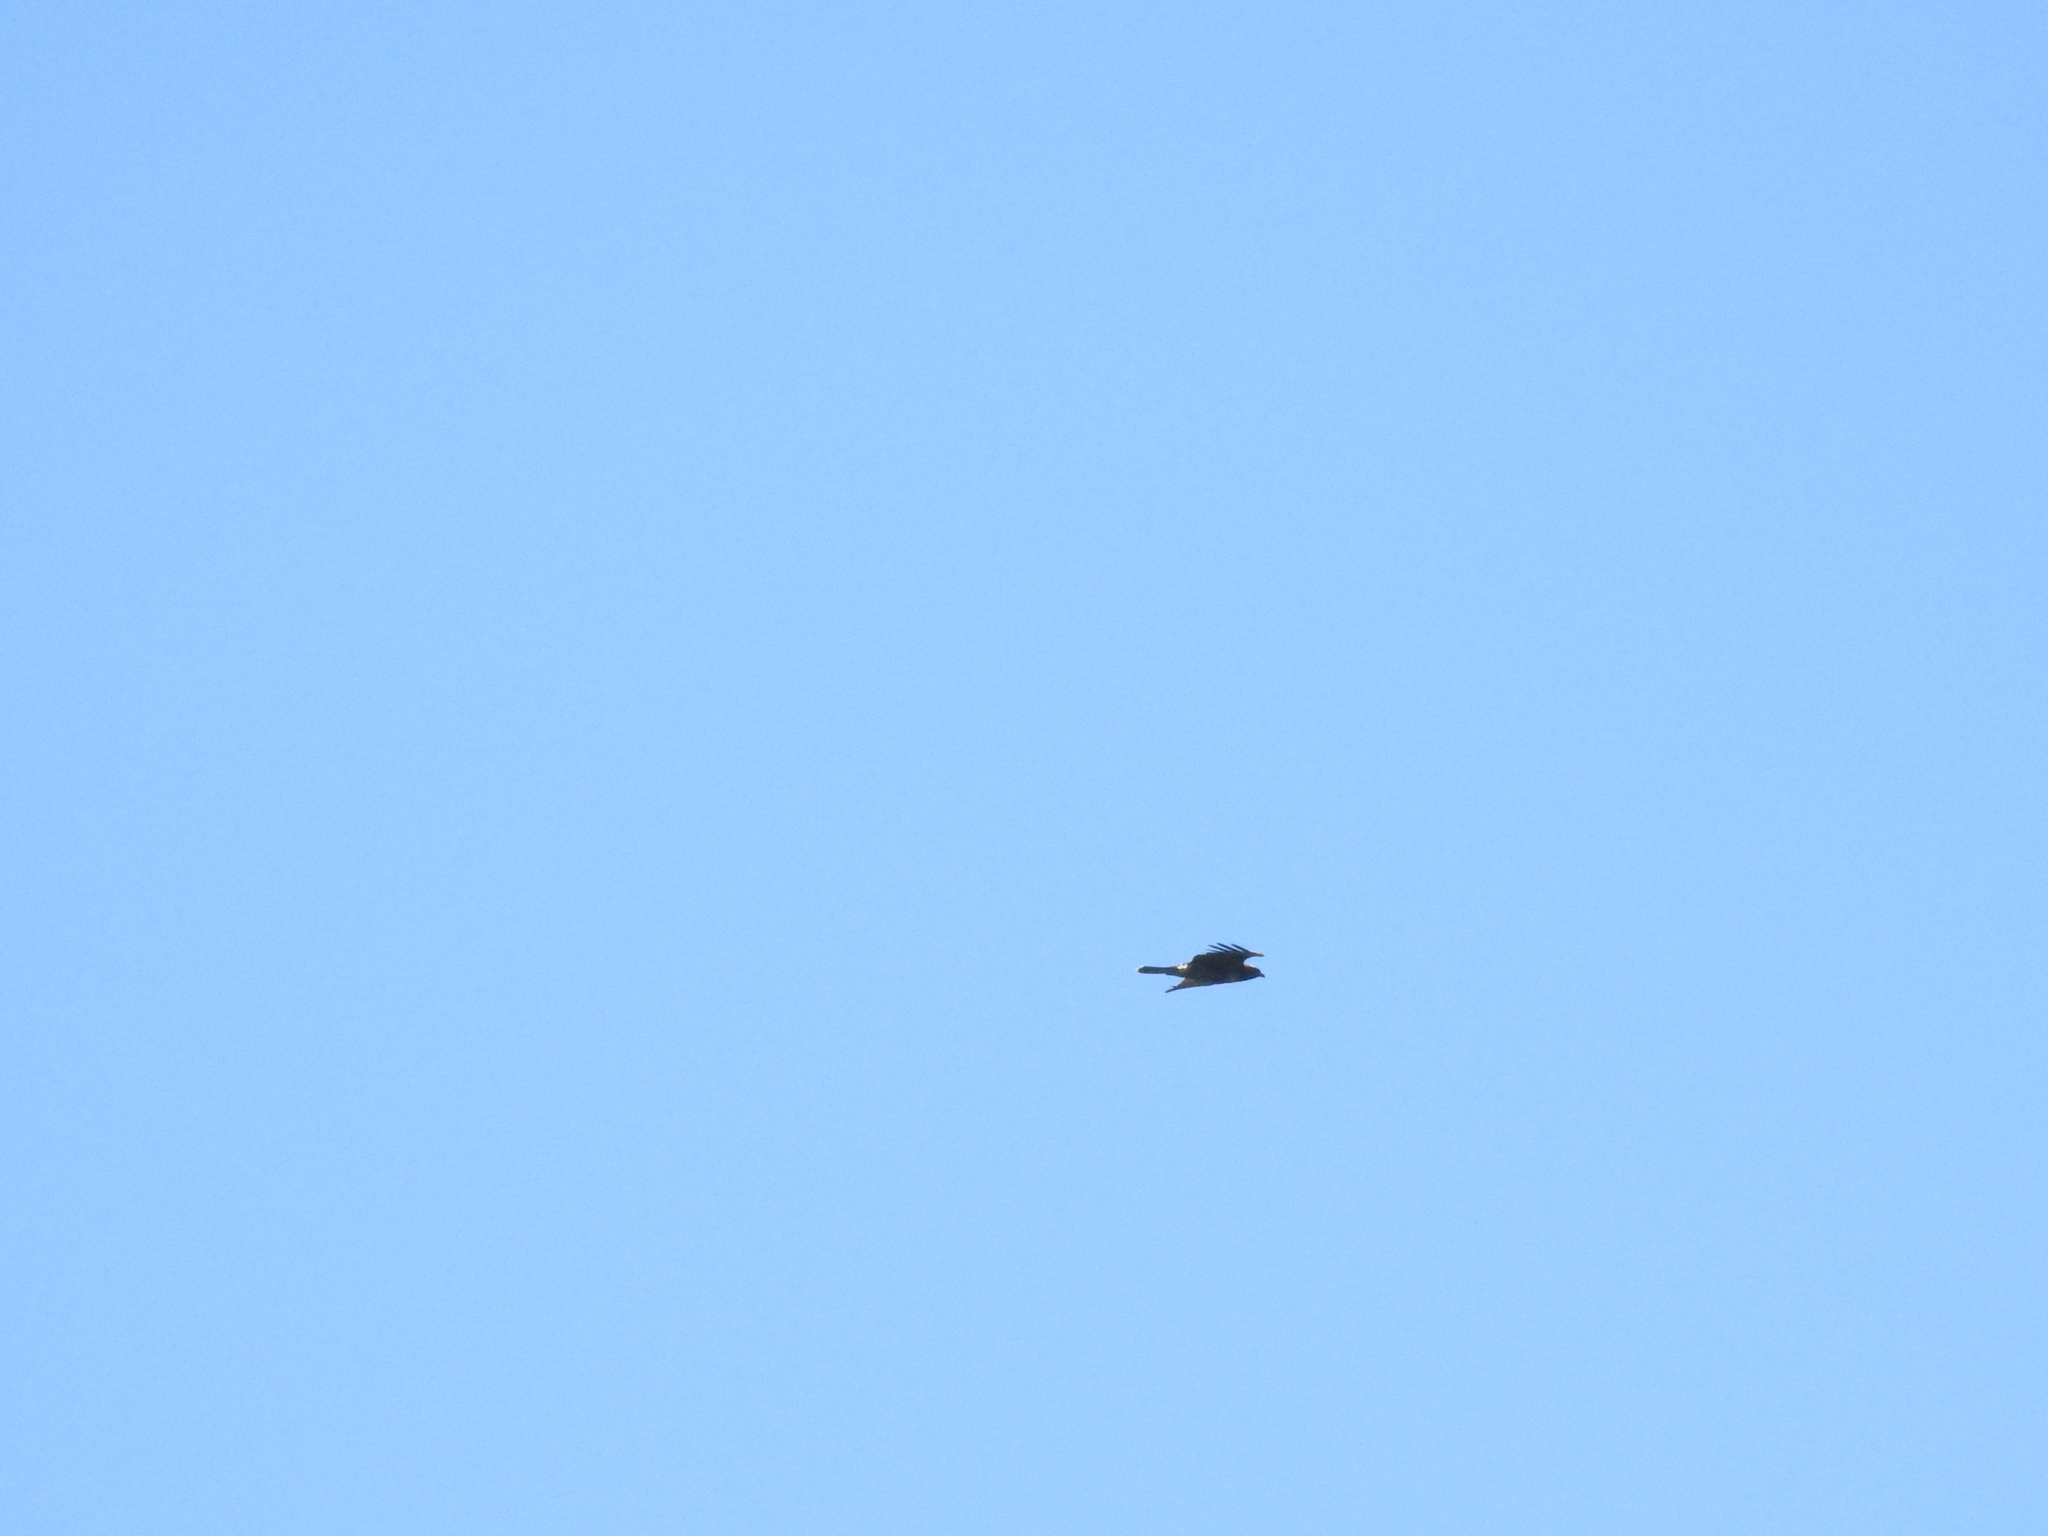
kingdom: Animalia
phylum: Chordata
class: Aves
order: Accipitriformes
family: Accipitridae
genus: Buteo
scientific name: Buteo jamaicensis
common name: Red-tailed hawk
